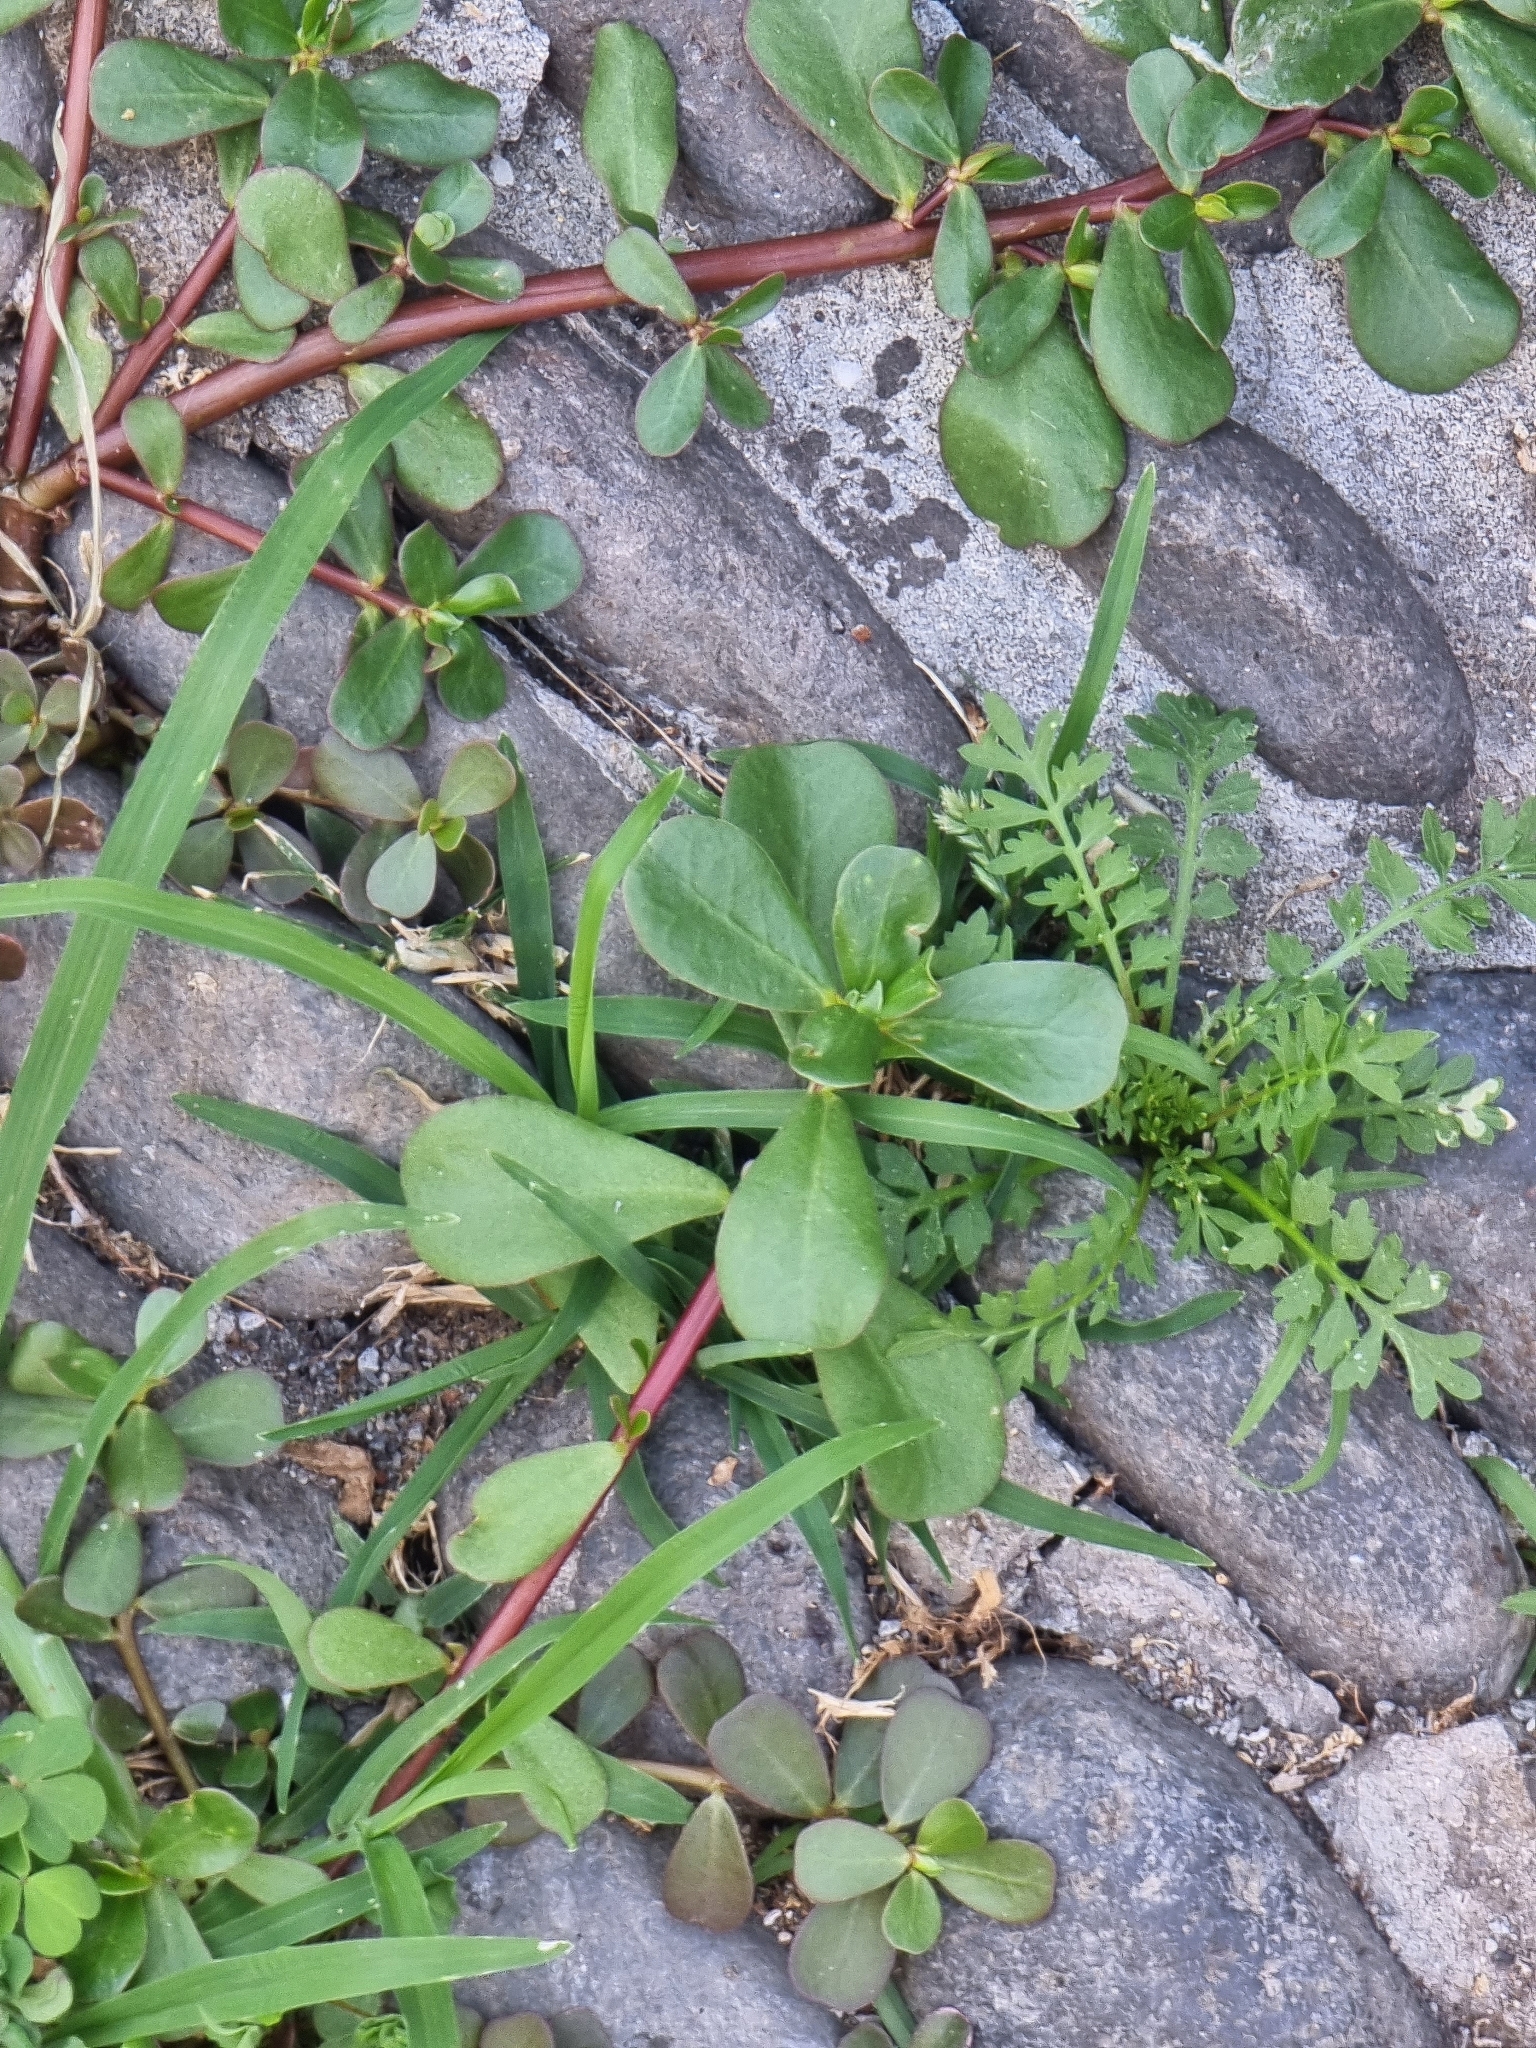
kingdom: Plantae
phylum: Tracheophyta
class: Magnoliopsida
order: Caryophyllales
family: Portulacaceae
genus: Portulaca
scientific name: Portulaca oleracea
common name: Common purslane
